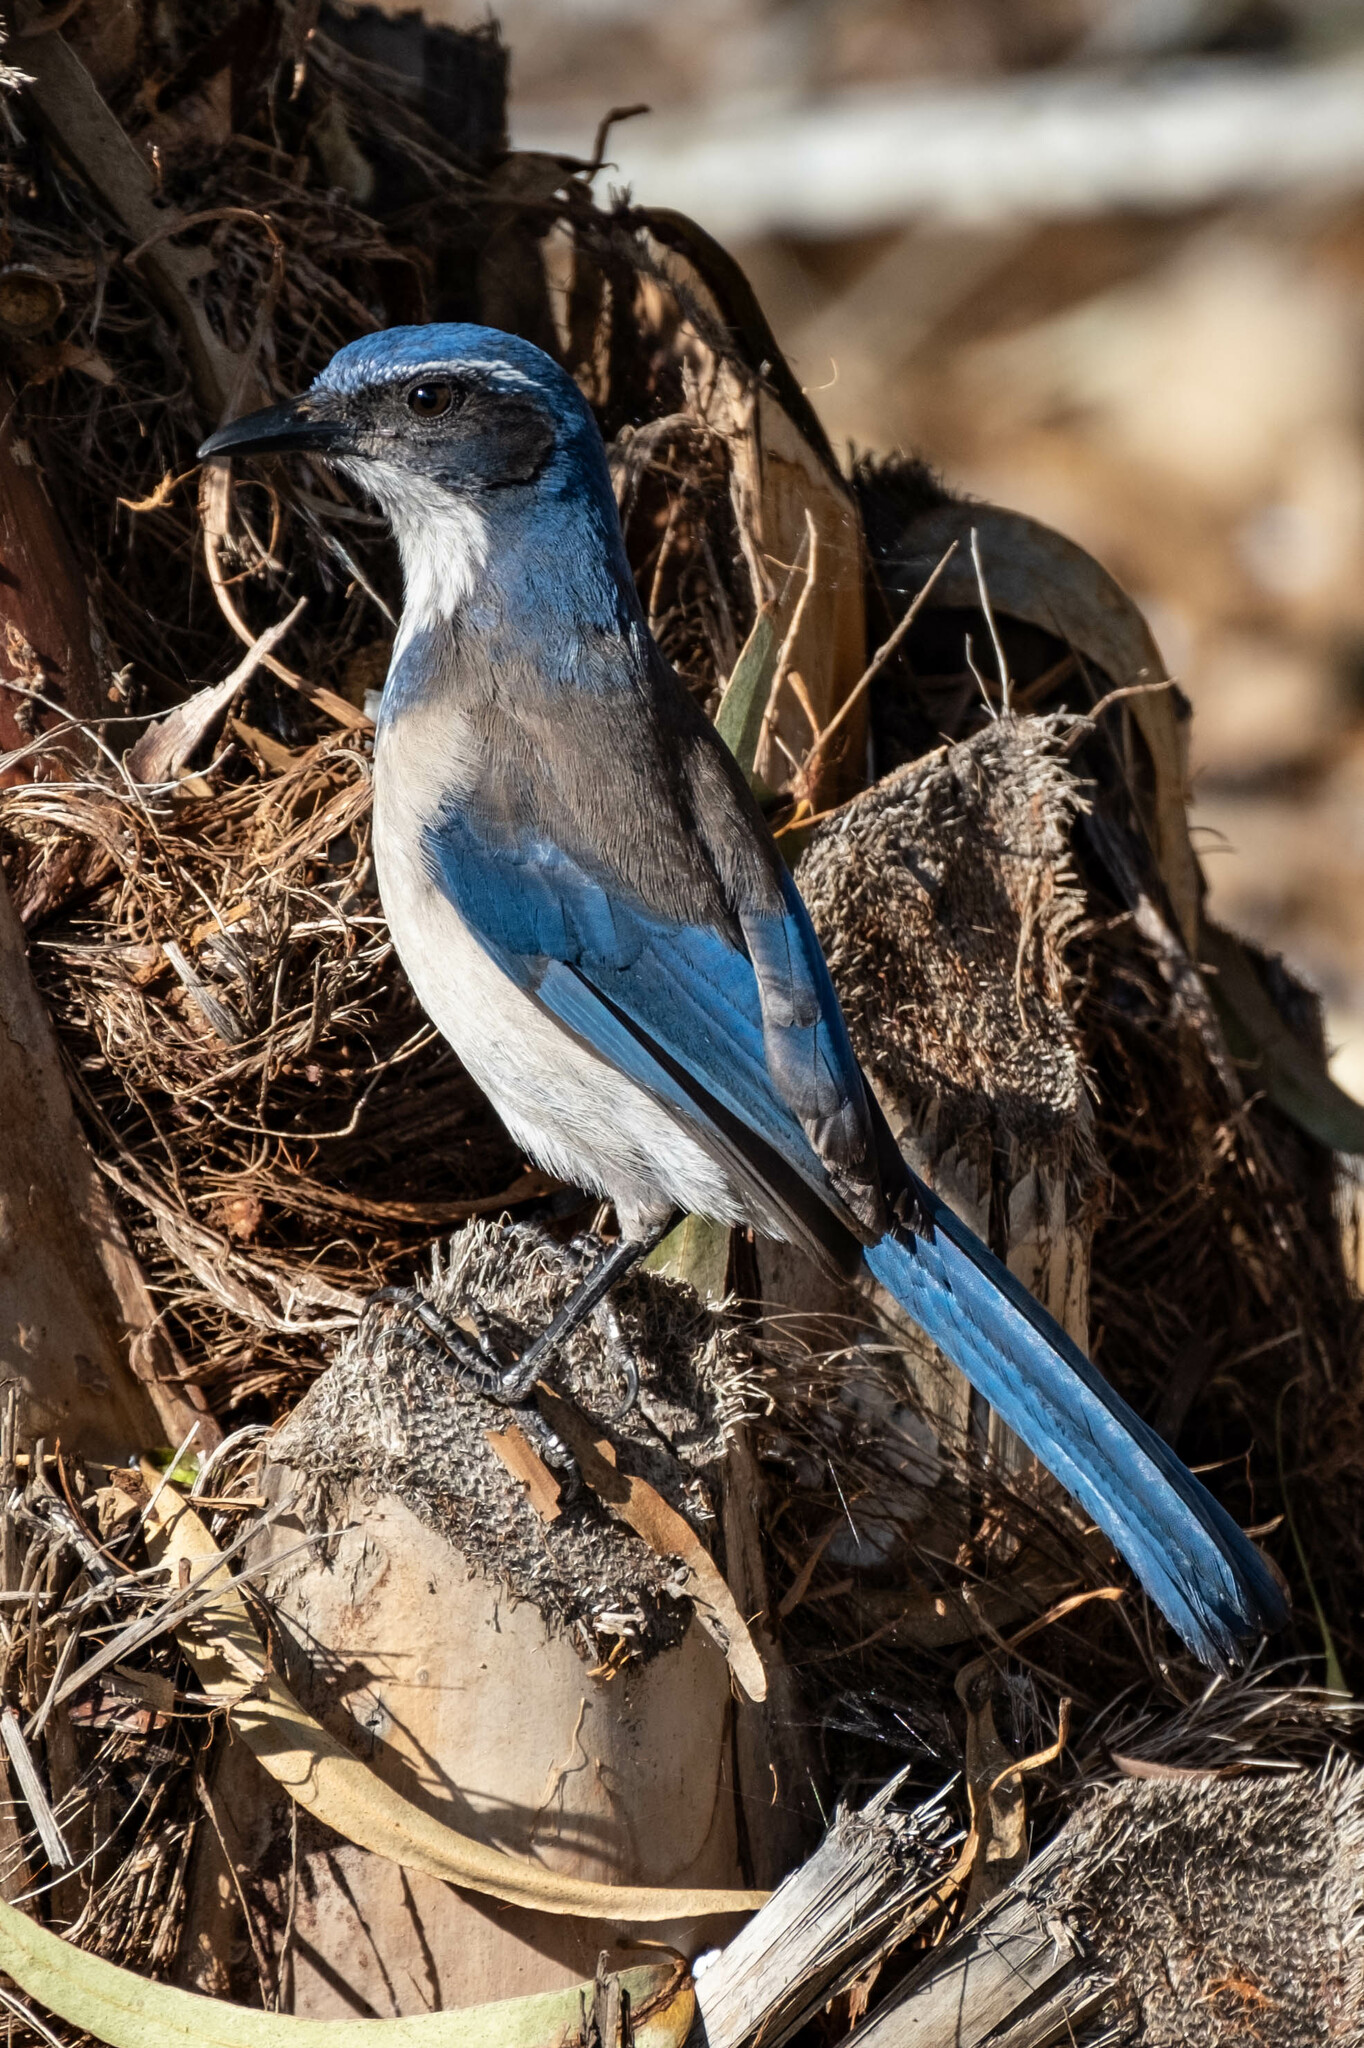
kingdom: Animalia
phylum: Chordata
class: Aves
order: Passeriformes
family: Corvidae
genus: Aphelocoma
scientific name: Aphelocoma californica
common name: California scrub-jay
